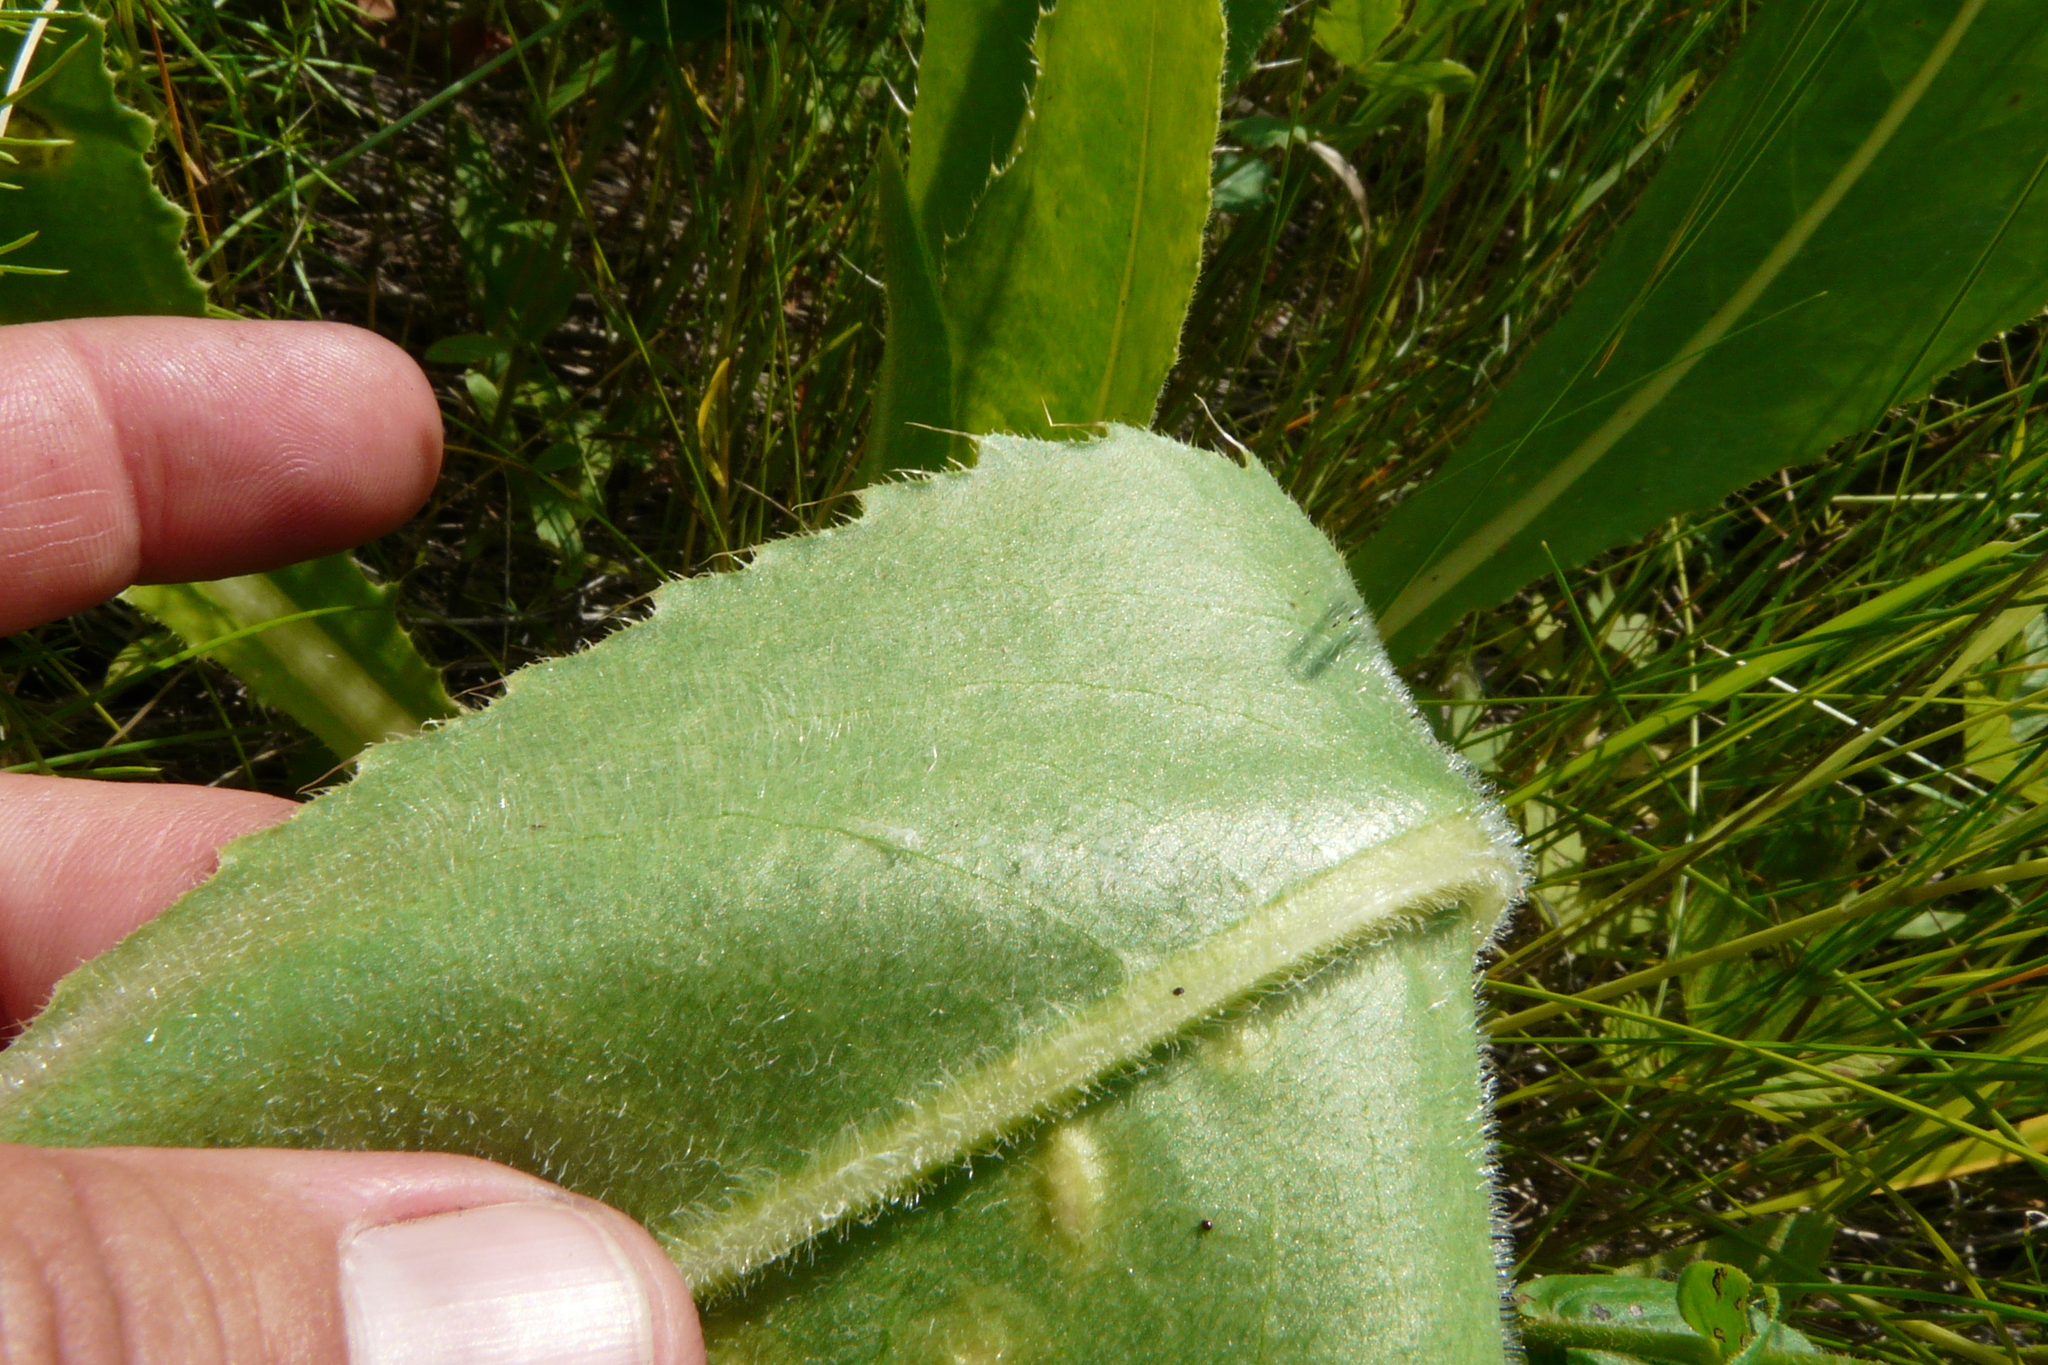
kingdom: Plantae
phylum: Tracheophyta
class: Magnoliopsida
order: Asterales
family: Asteraceae
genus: Cirsium
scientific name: Cirsium canum
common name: Queen anne's thistle
